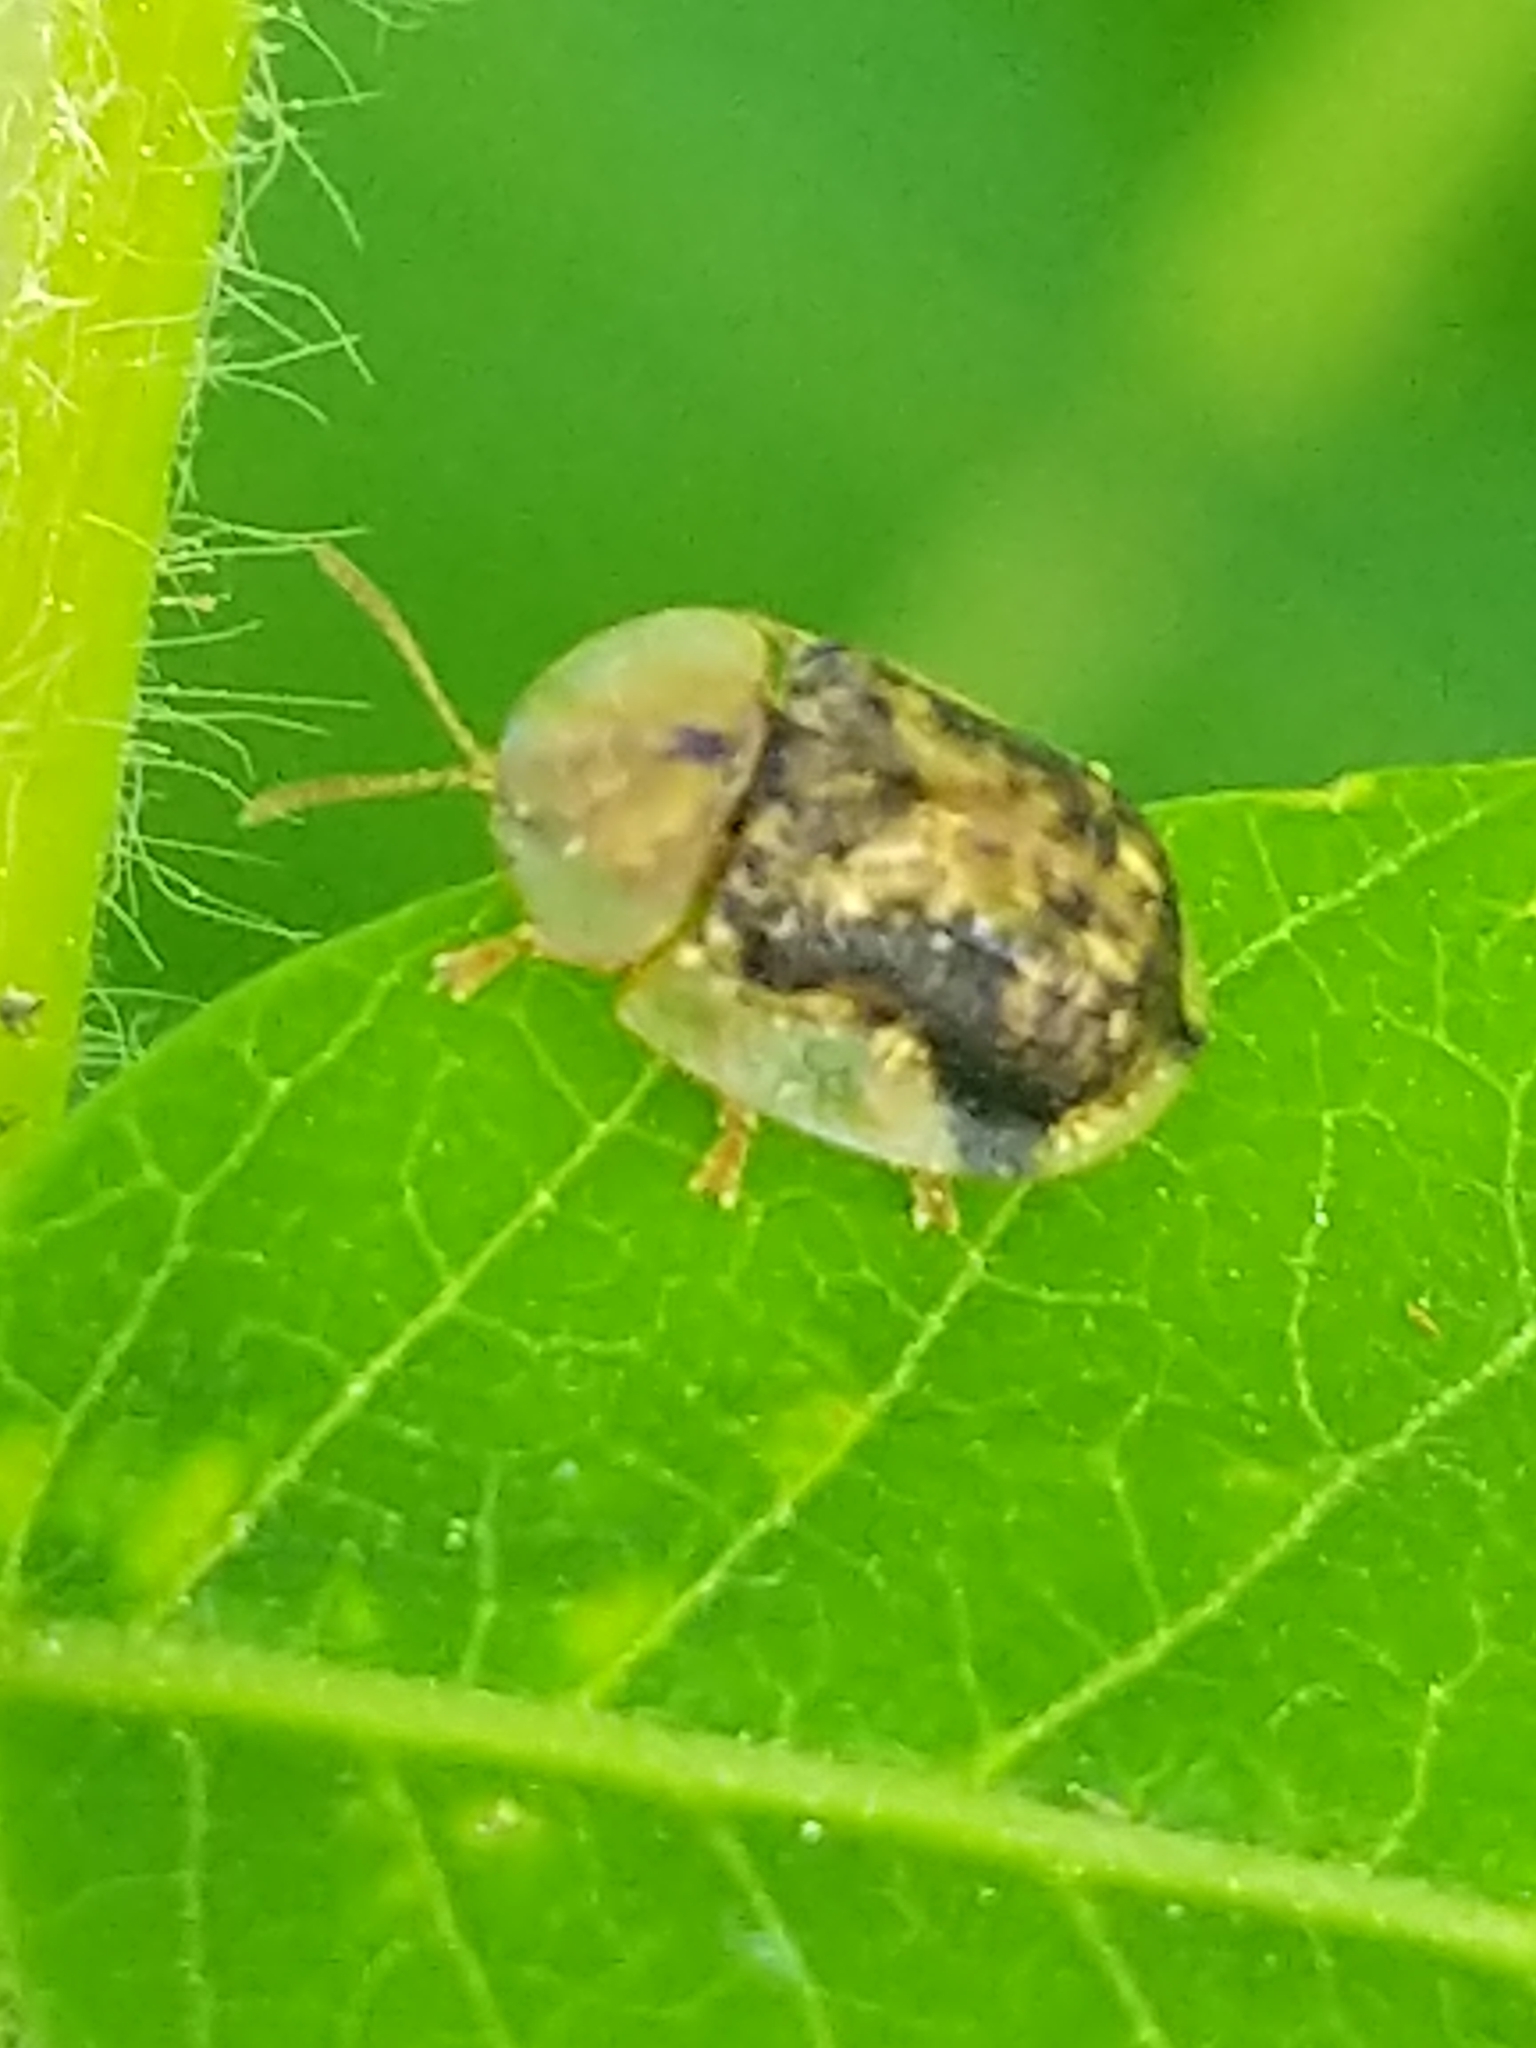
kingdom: Animalia
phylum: Arthropoda
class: Insecta
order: Coleoptera
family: Chrysomelidae
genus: Cassida
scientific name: Cassida piperata
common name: Small tortoise beetle
